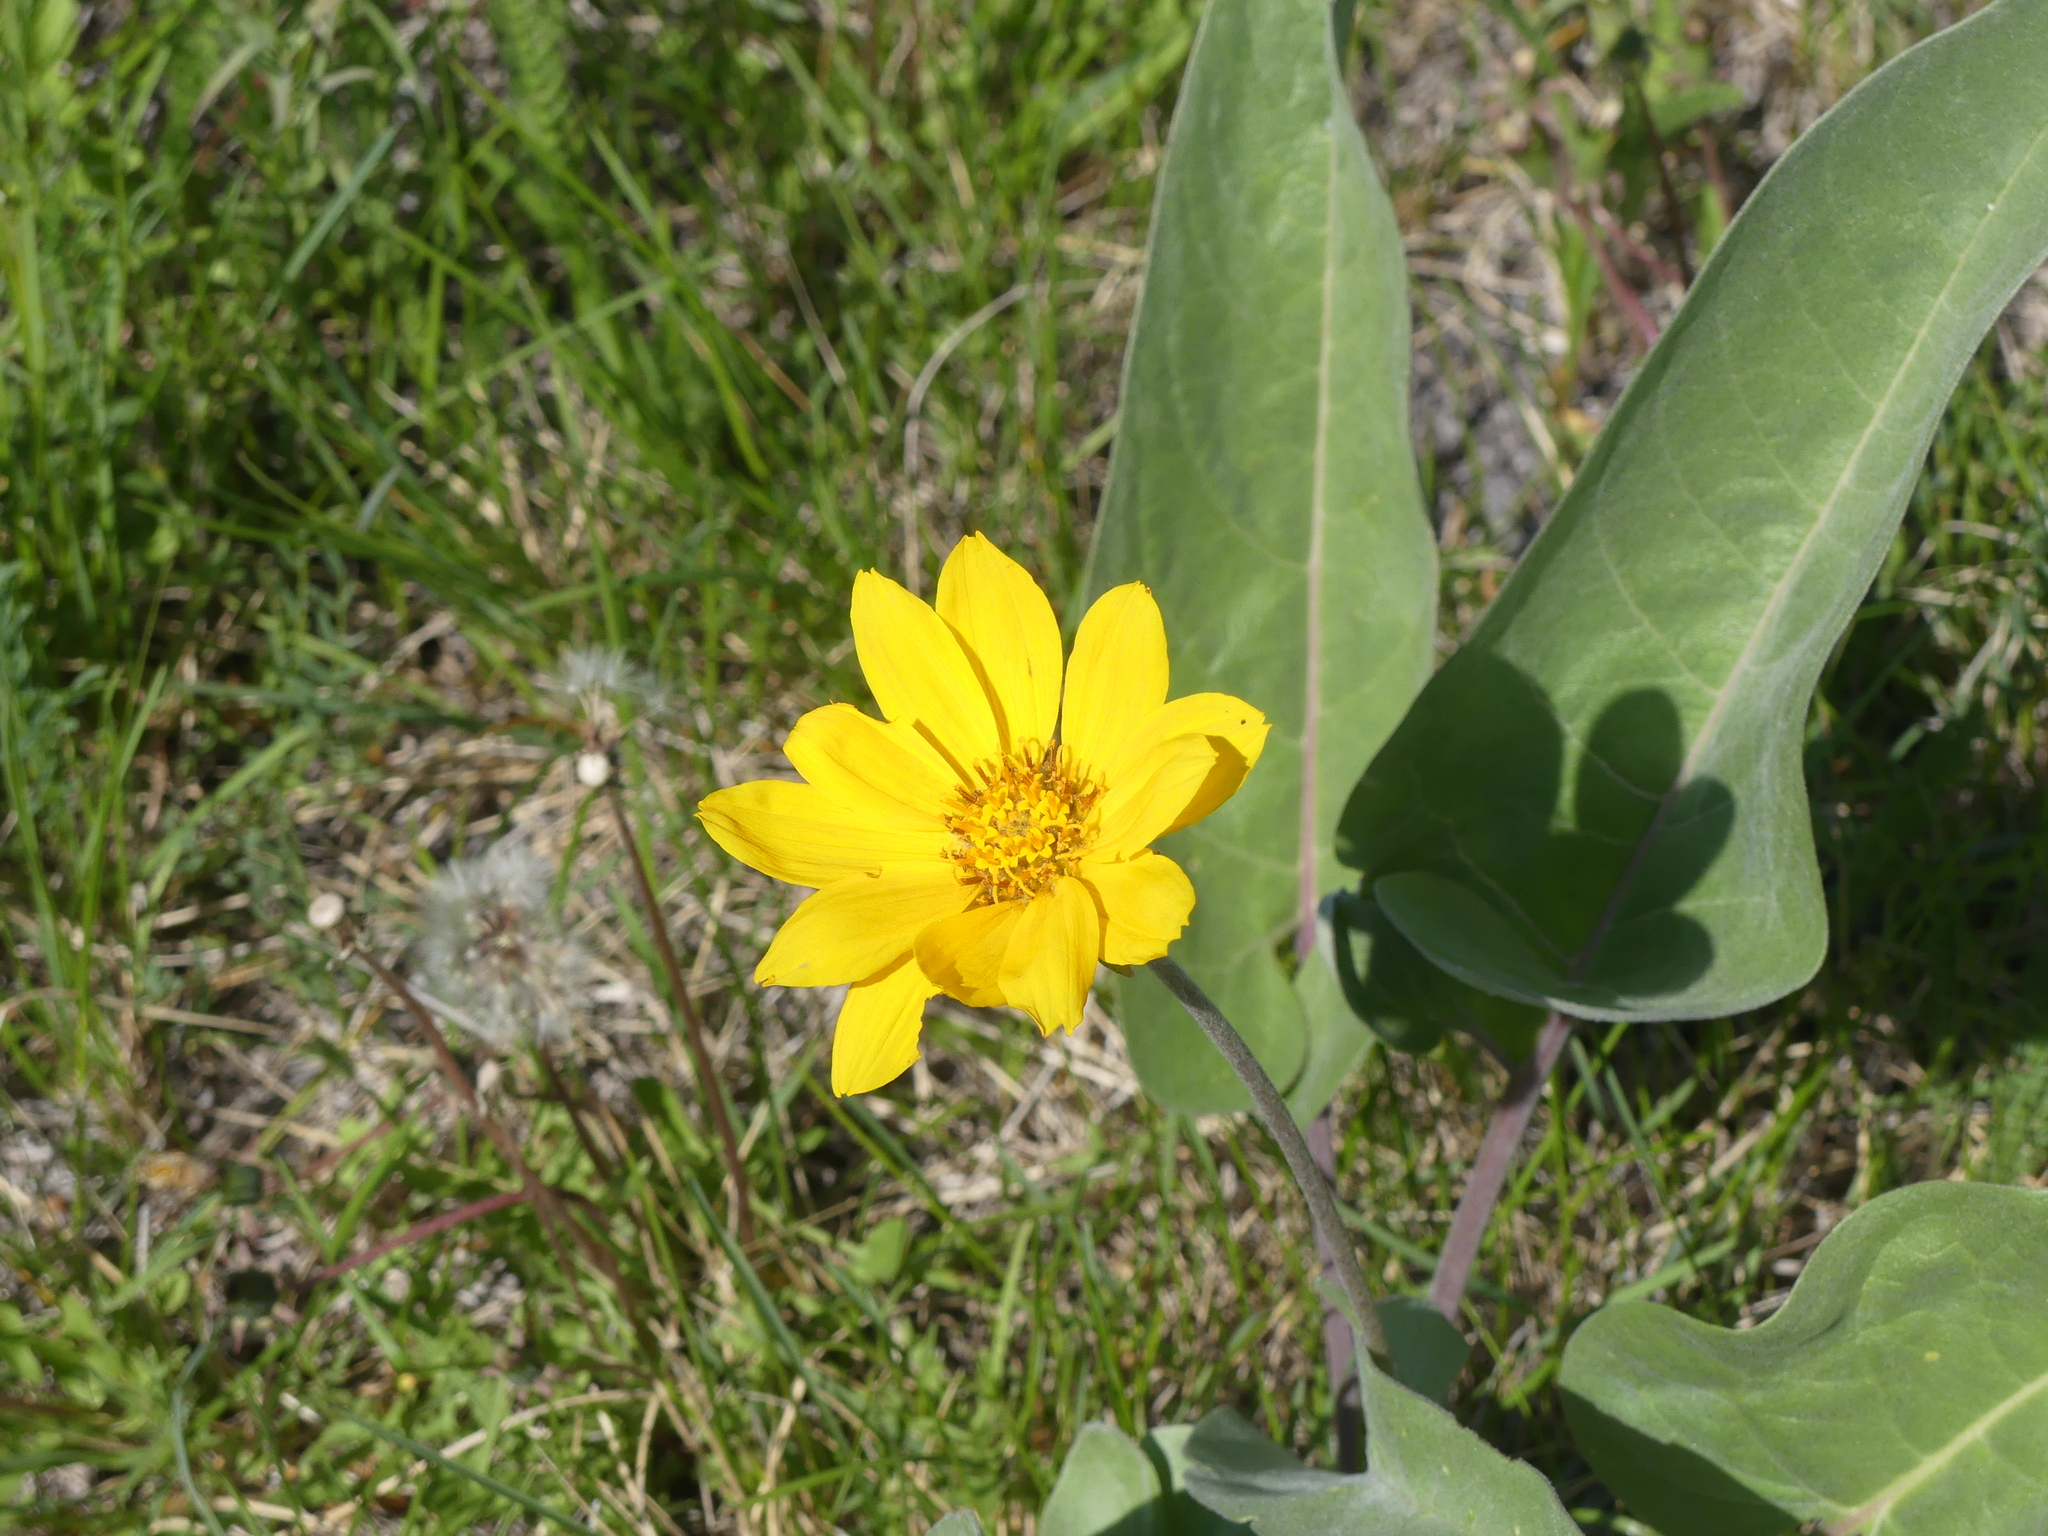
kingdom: Plantae
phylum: Tracheophyta
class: Magnoliopsida
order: Asterales
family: Asteraceae
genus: Wyethia
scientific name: Wyethia sagittata
